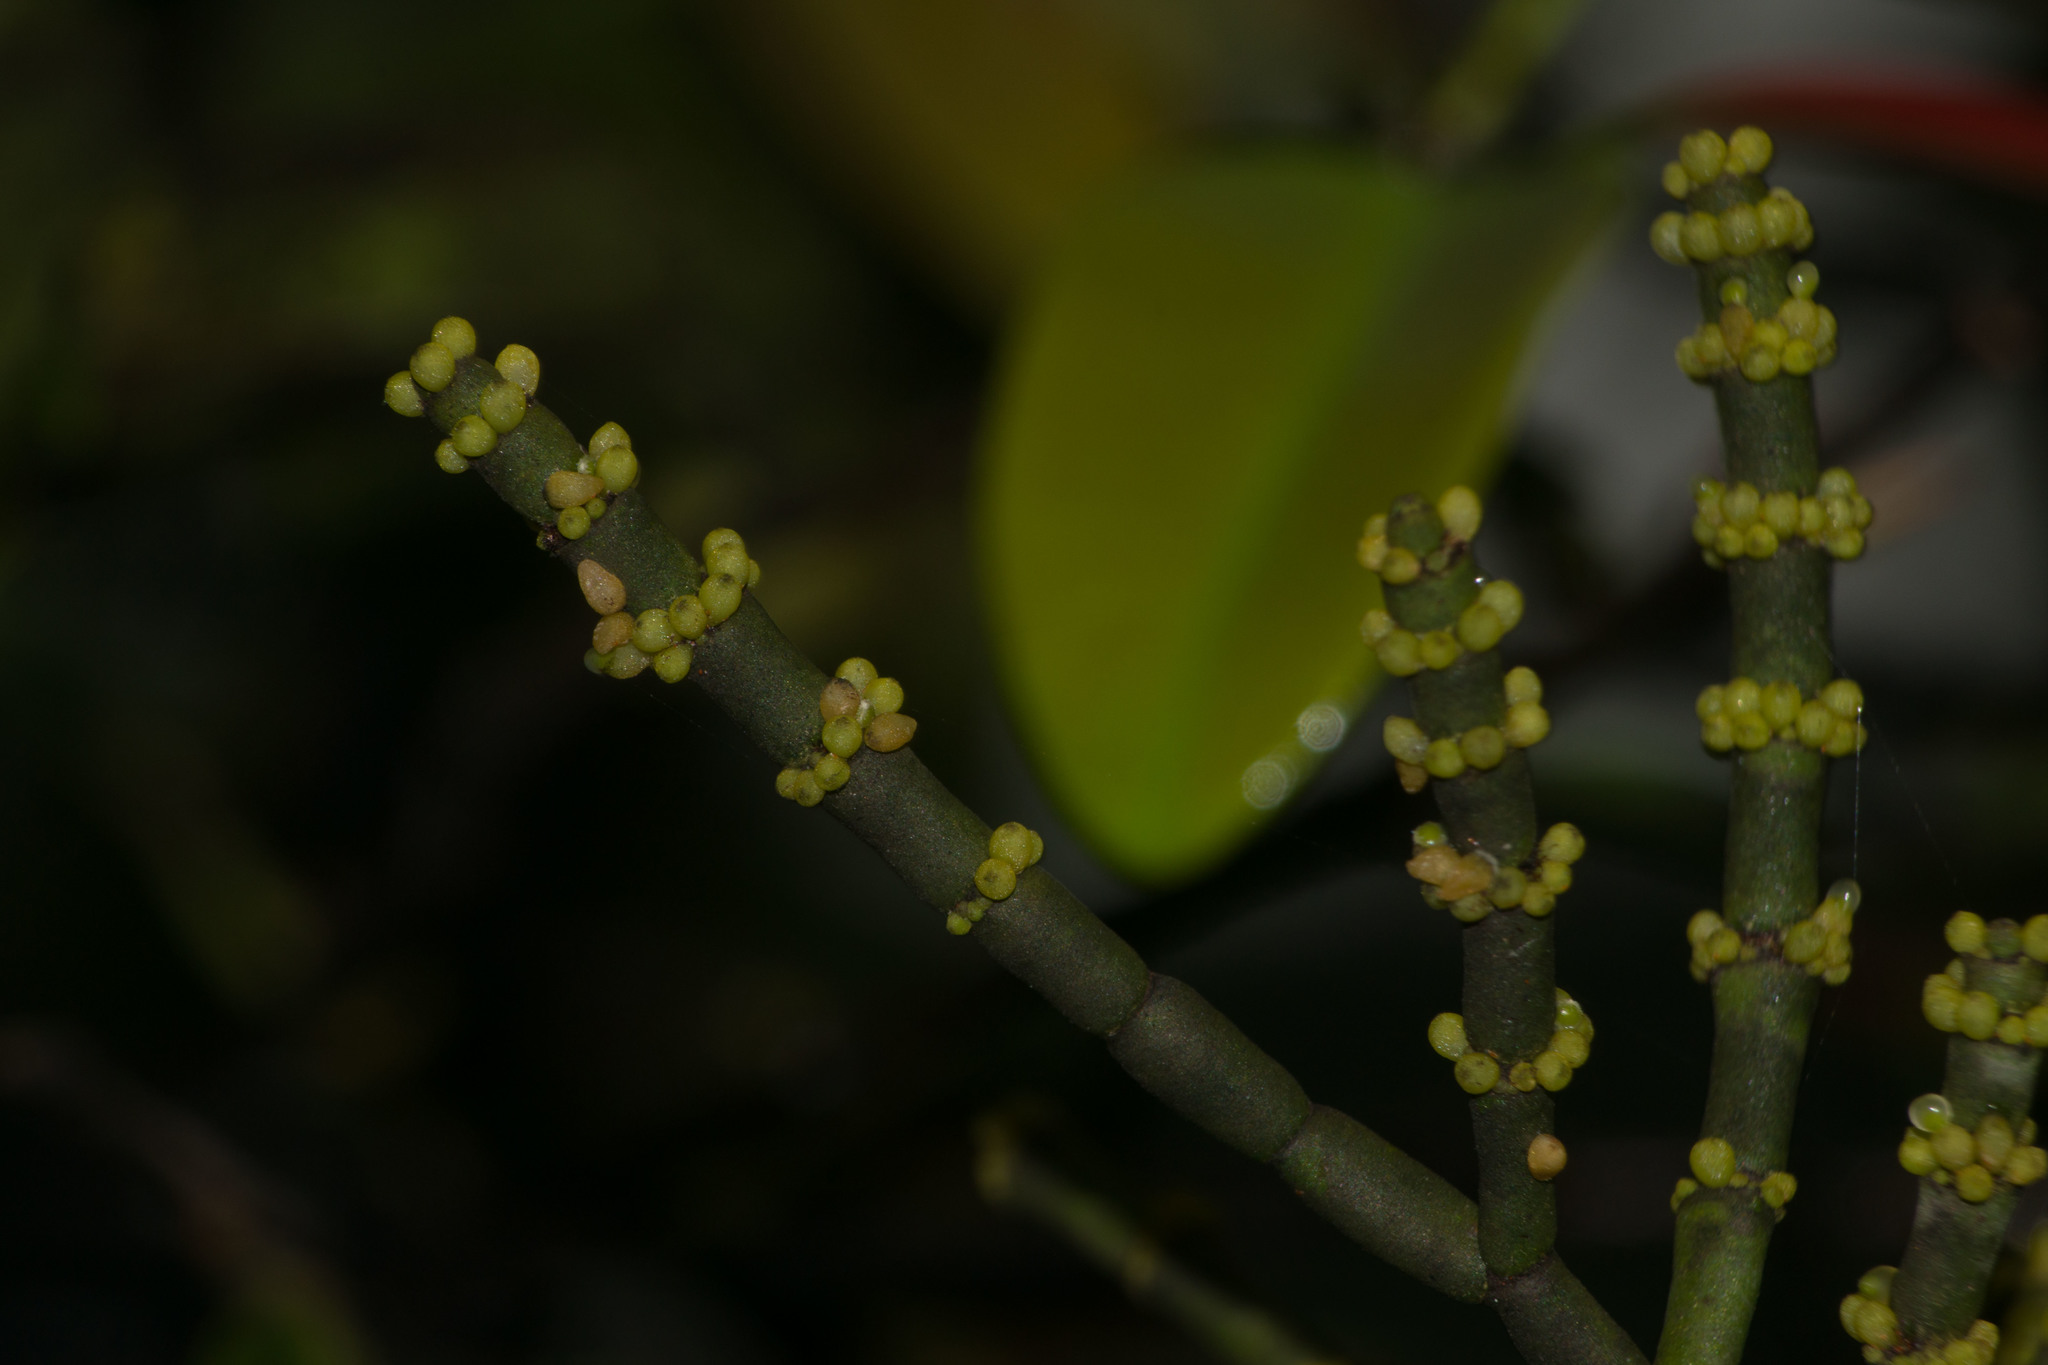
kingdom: Plantae
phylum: Tracheophyta
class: Magnoliopsida
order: Santalales
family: Viscaceae
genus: Korthalsella
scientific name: Korthalsella cylindrica
